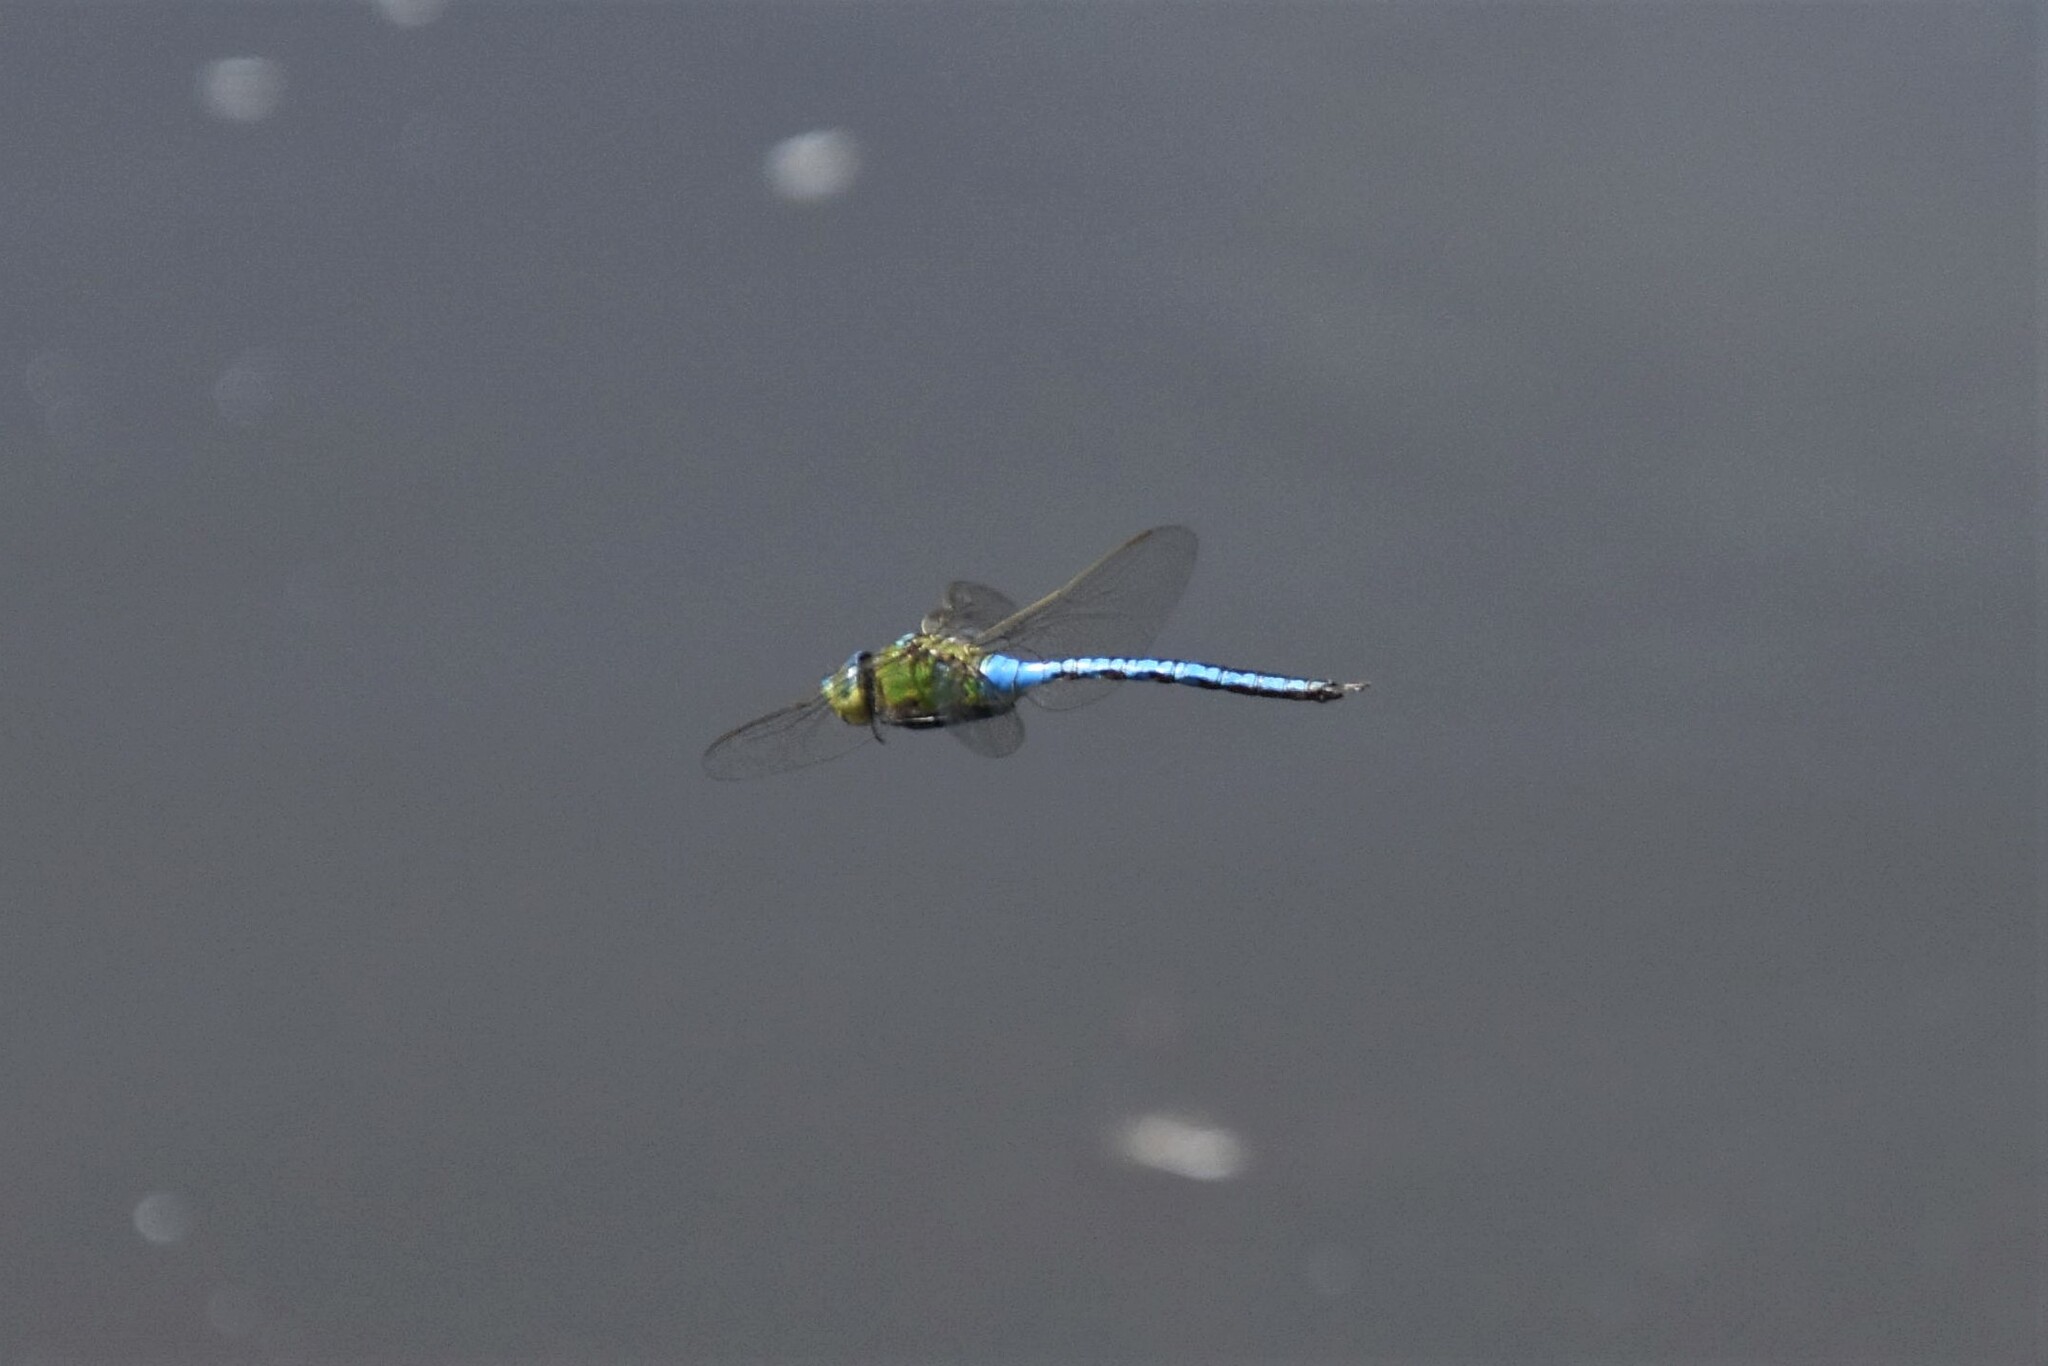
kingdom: Animalia
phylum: Arthropoda
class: Insecta
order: Odonata
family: Aeshnidae
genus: Anax
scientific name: Anax imperator
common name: Emperor dragonfly
